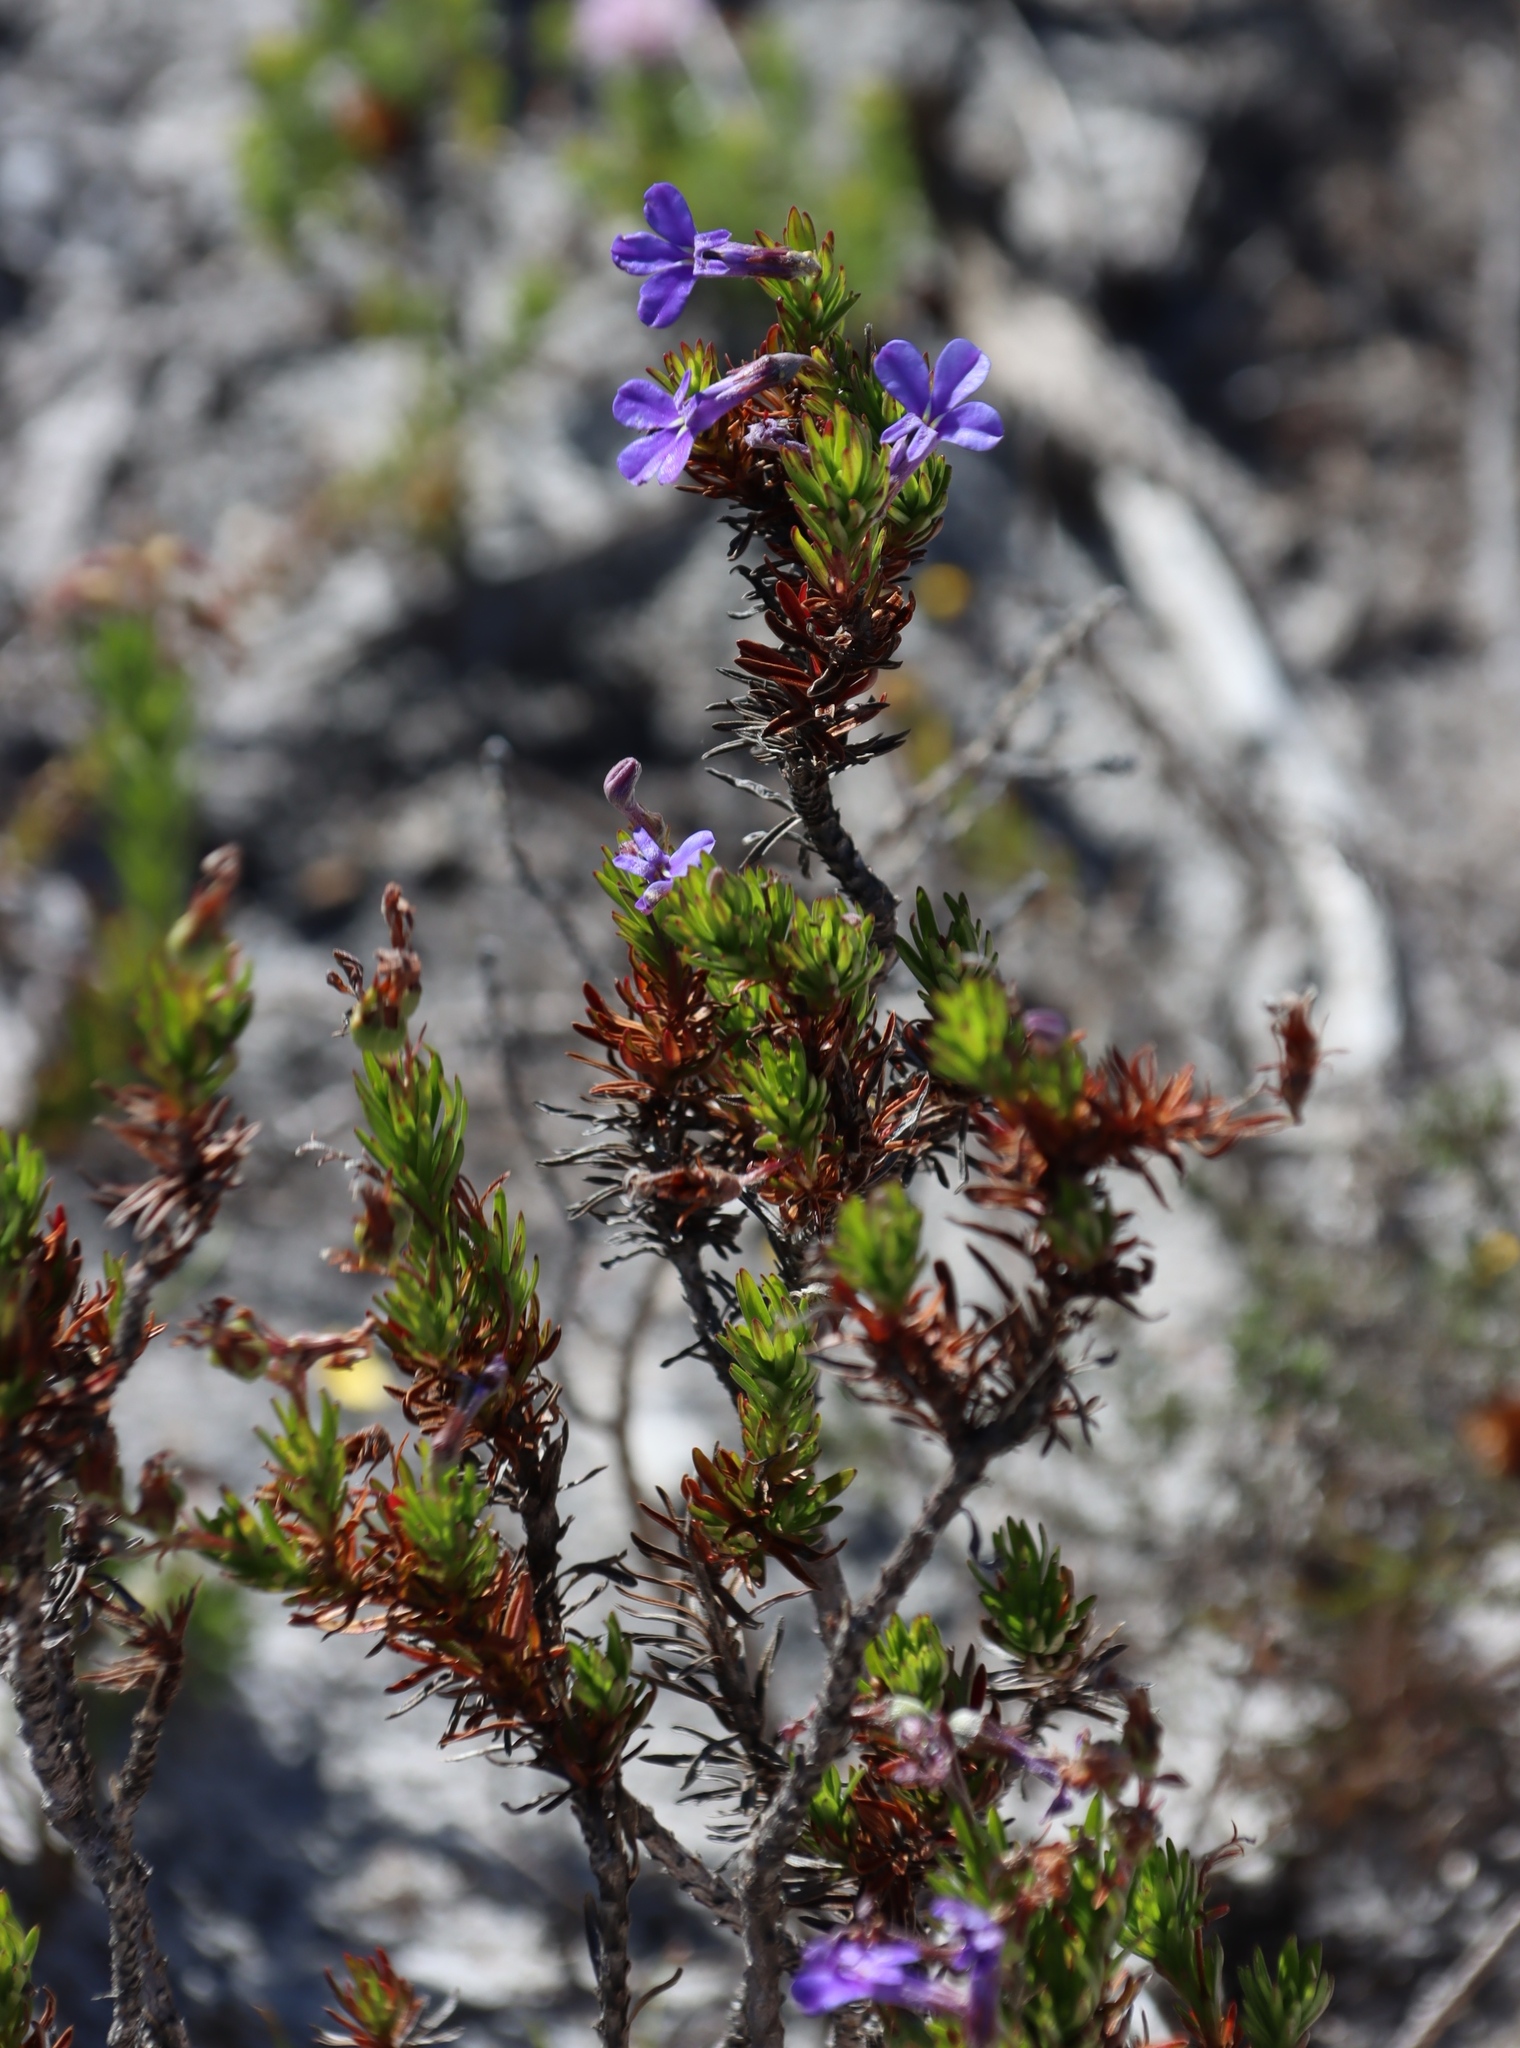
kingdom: Plantae
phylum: Tracheophyta
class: Magnoliopsida
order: Asterales
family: Campanulaceae
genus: Lobelia
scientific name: Lobelia pinifolia
